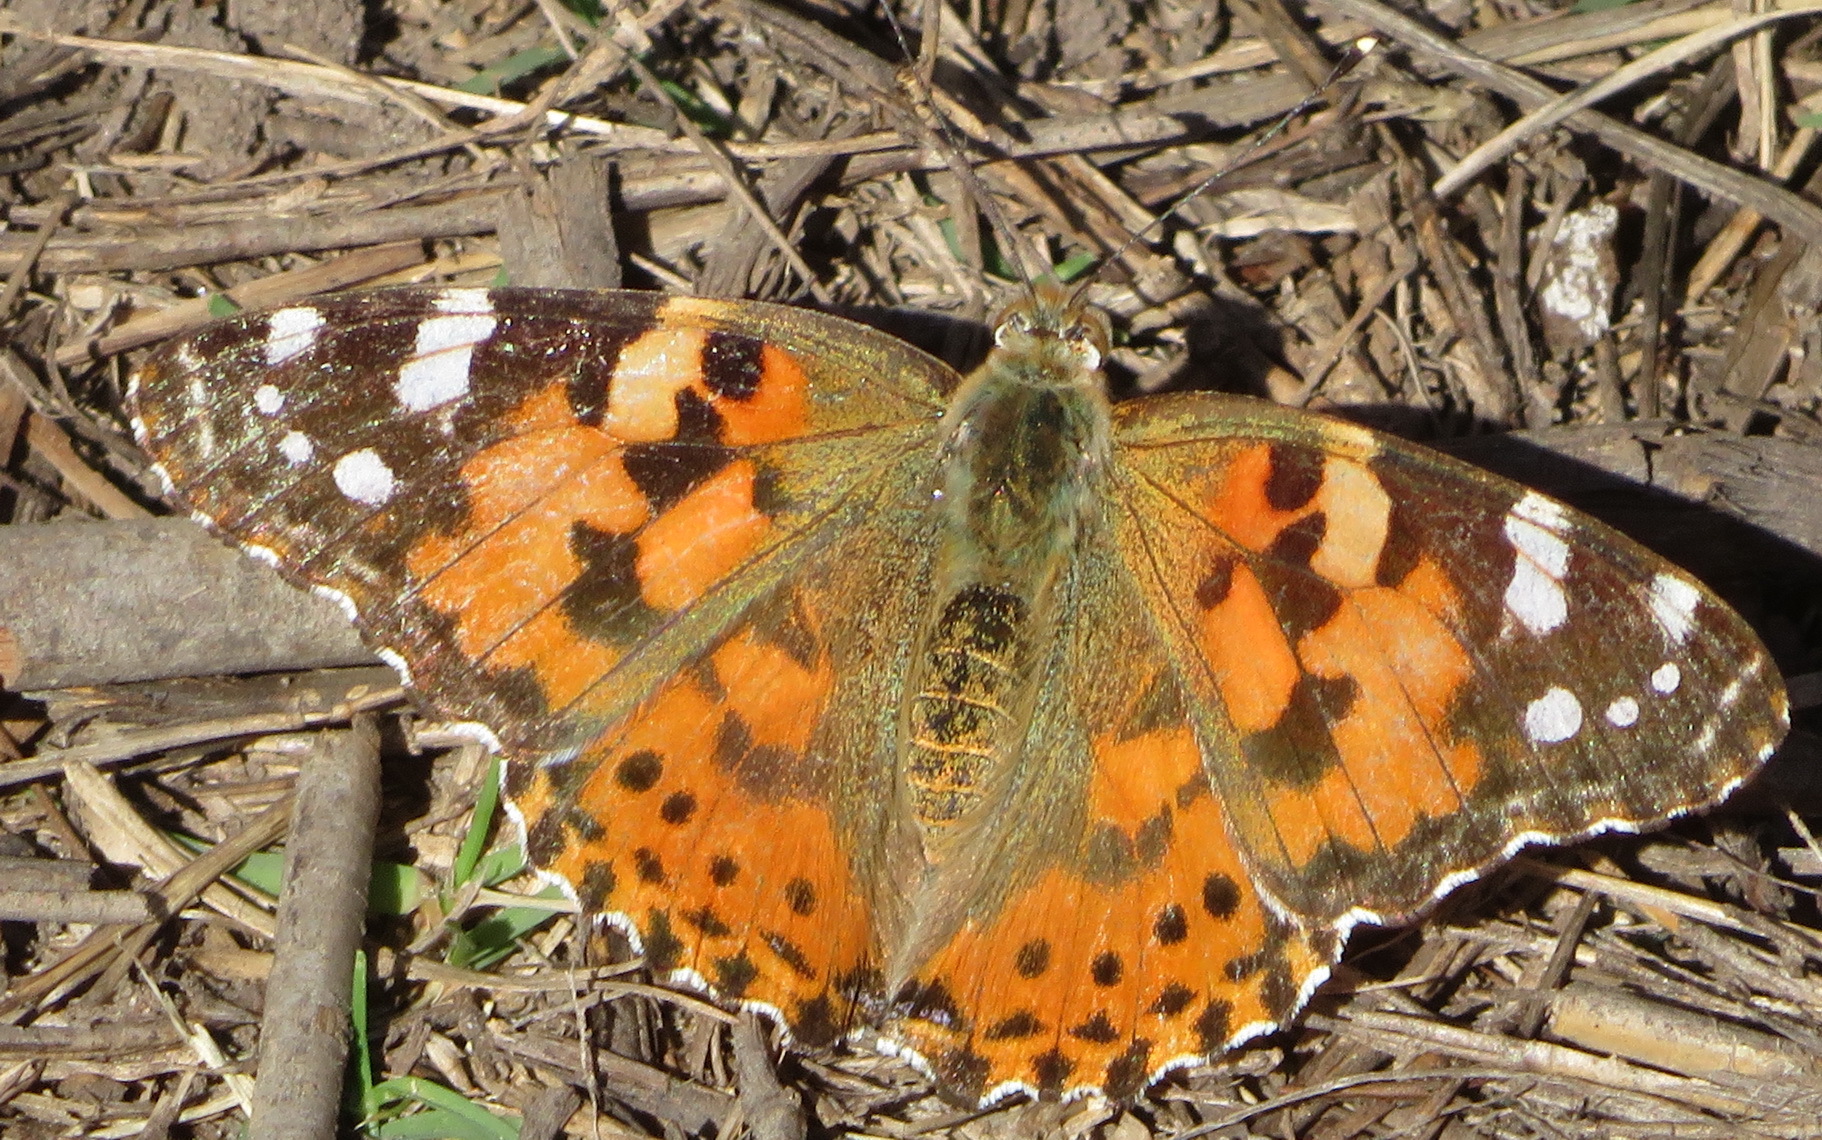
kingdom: Animalia
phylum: Arthropoda
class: Insecta
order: Lepidoptera
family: Nymphalidae
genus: Vanessa
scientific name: Vanessa cardui
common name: Painted lady
